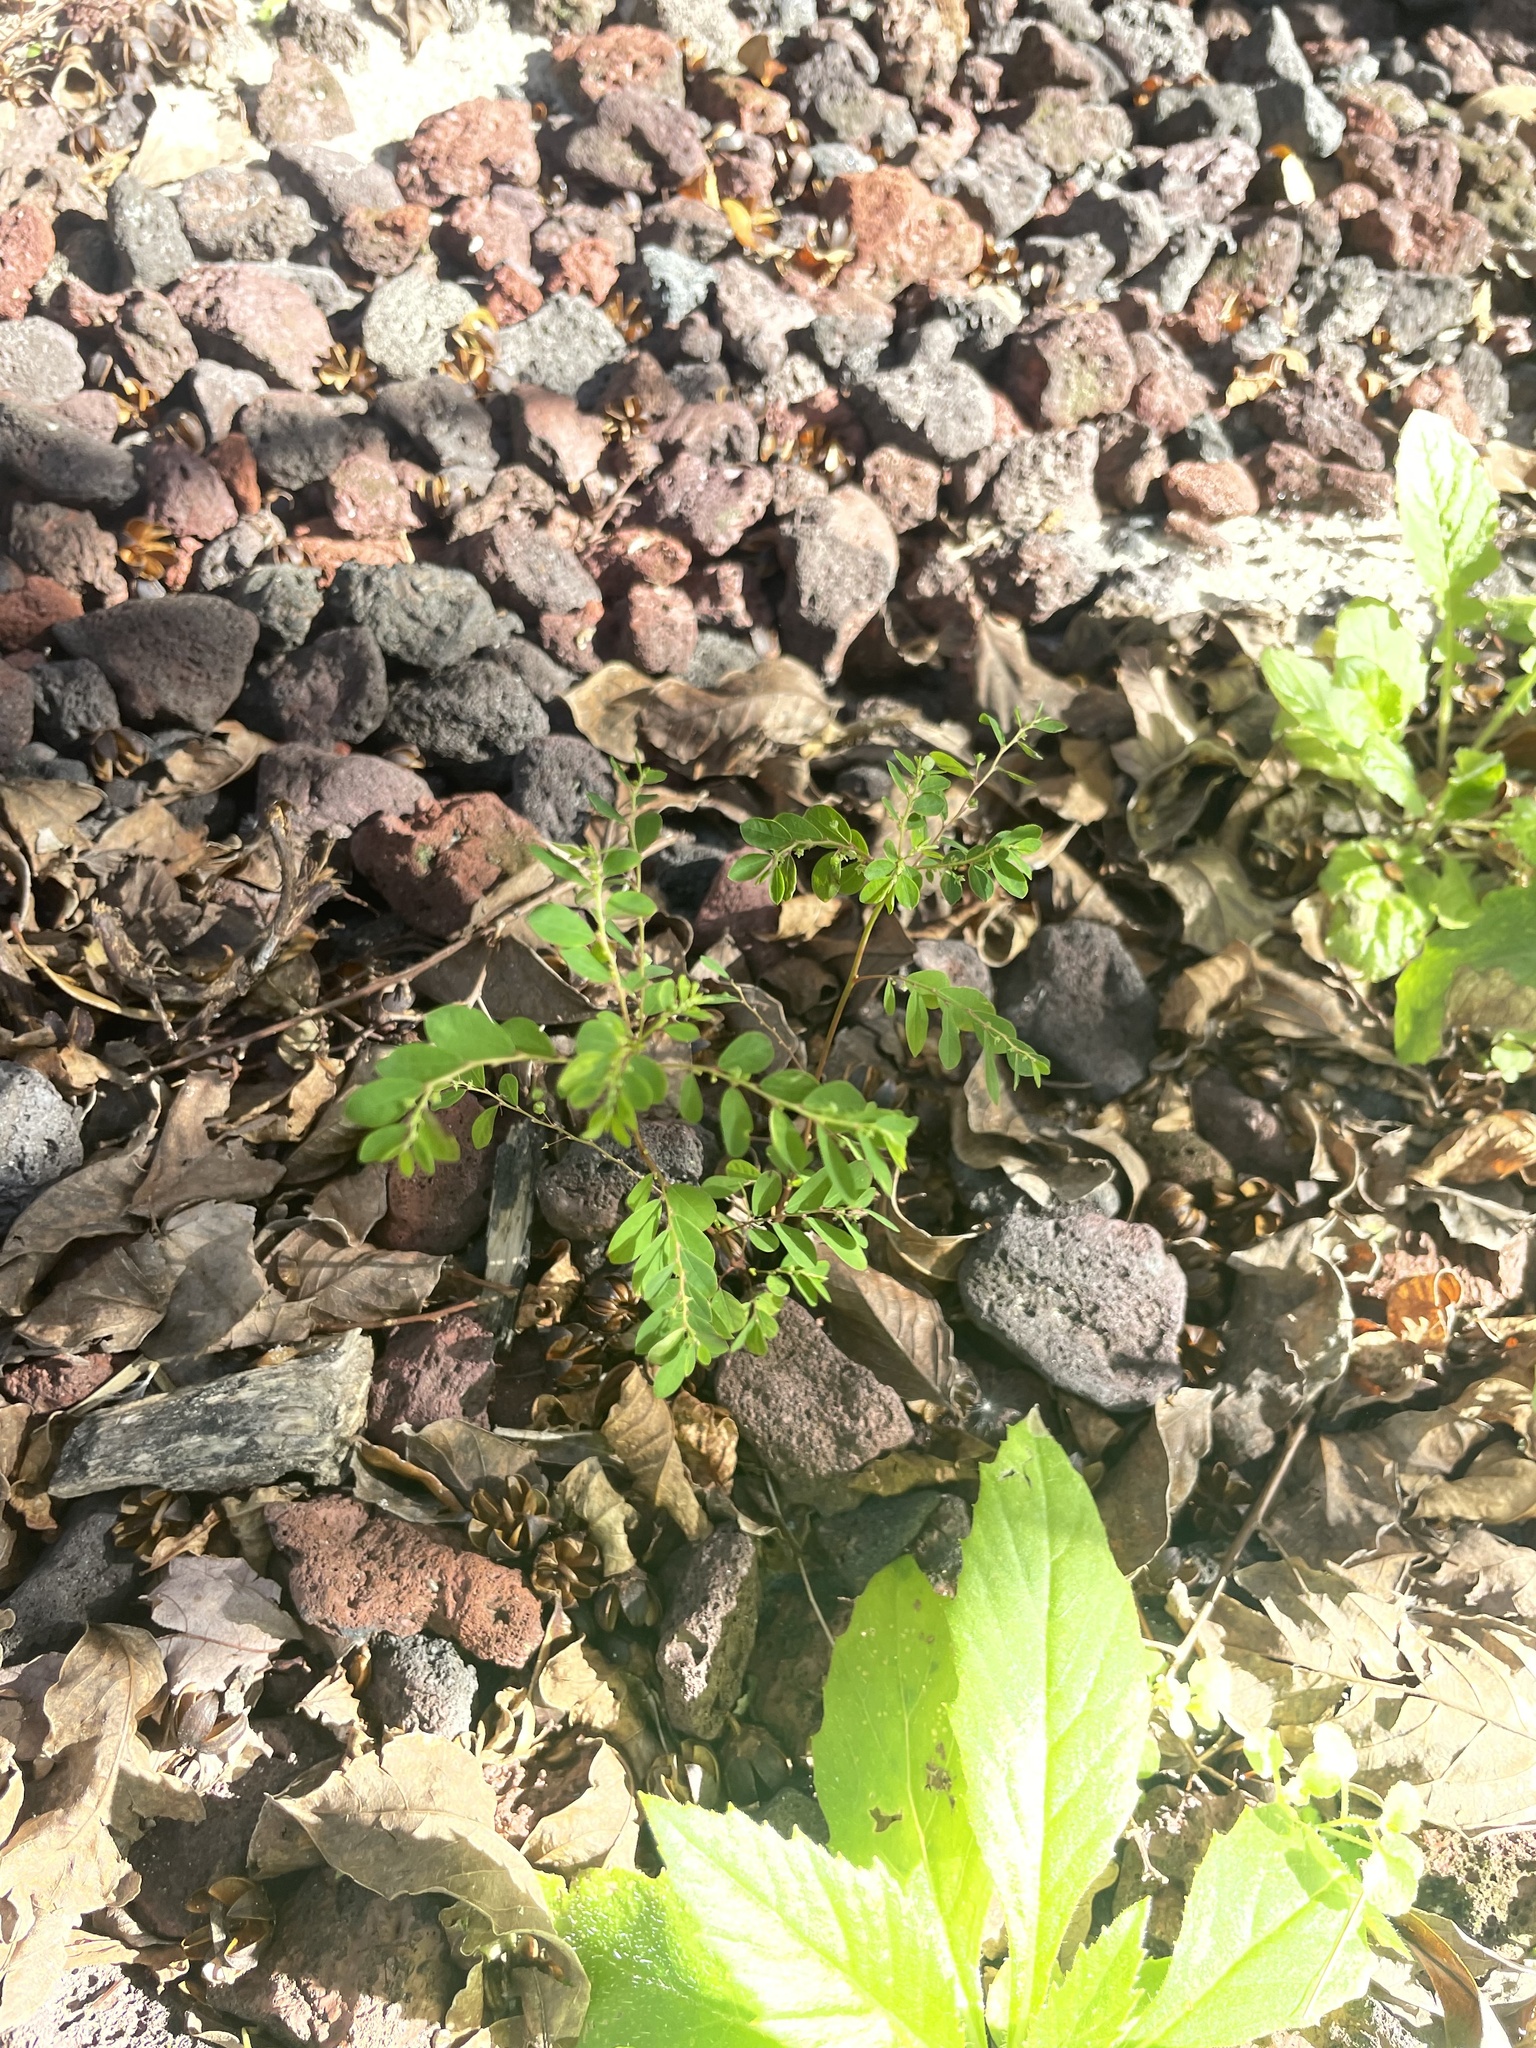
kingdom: Plantae
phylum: Tracheophyta
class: Magnoliopsida
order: Malpighiales
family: Phyllanthaceae
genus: Phyllanthus
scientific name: Phyllanthus tenellus
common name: Mascarene island leaf-flower
